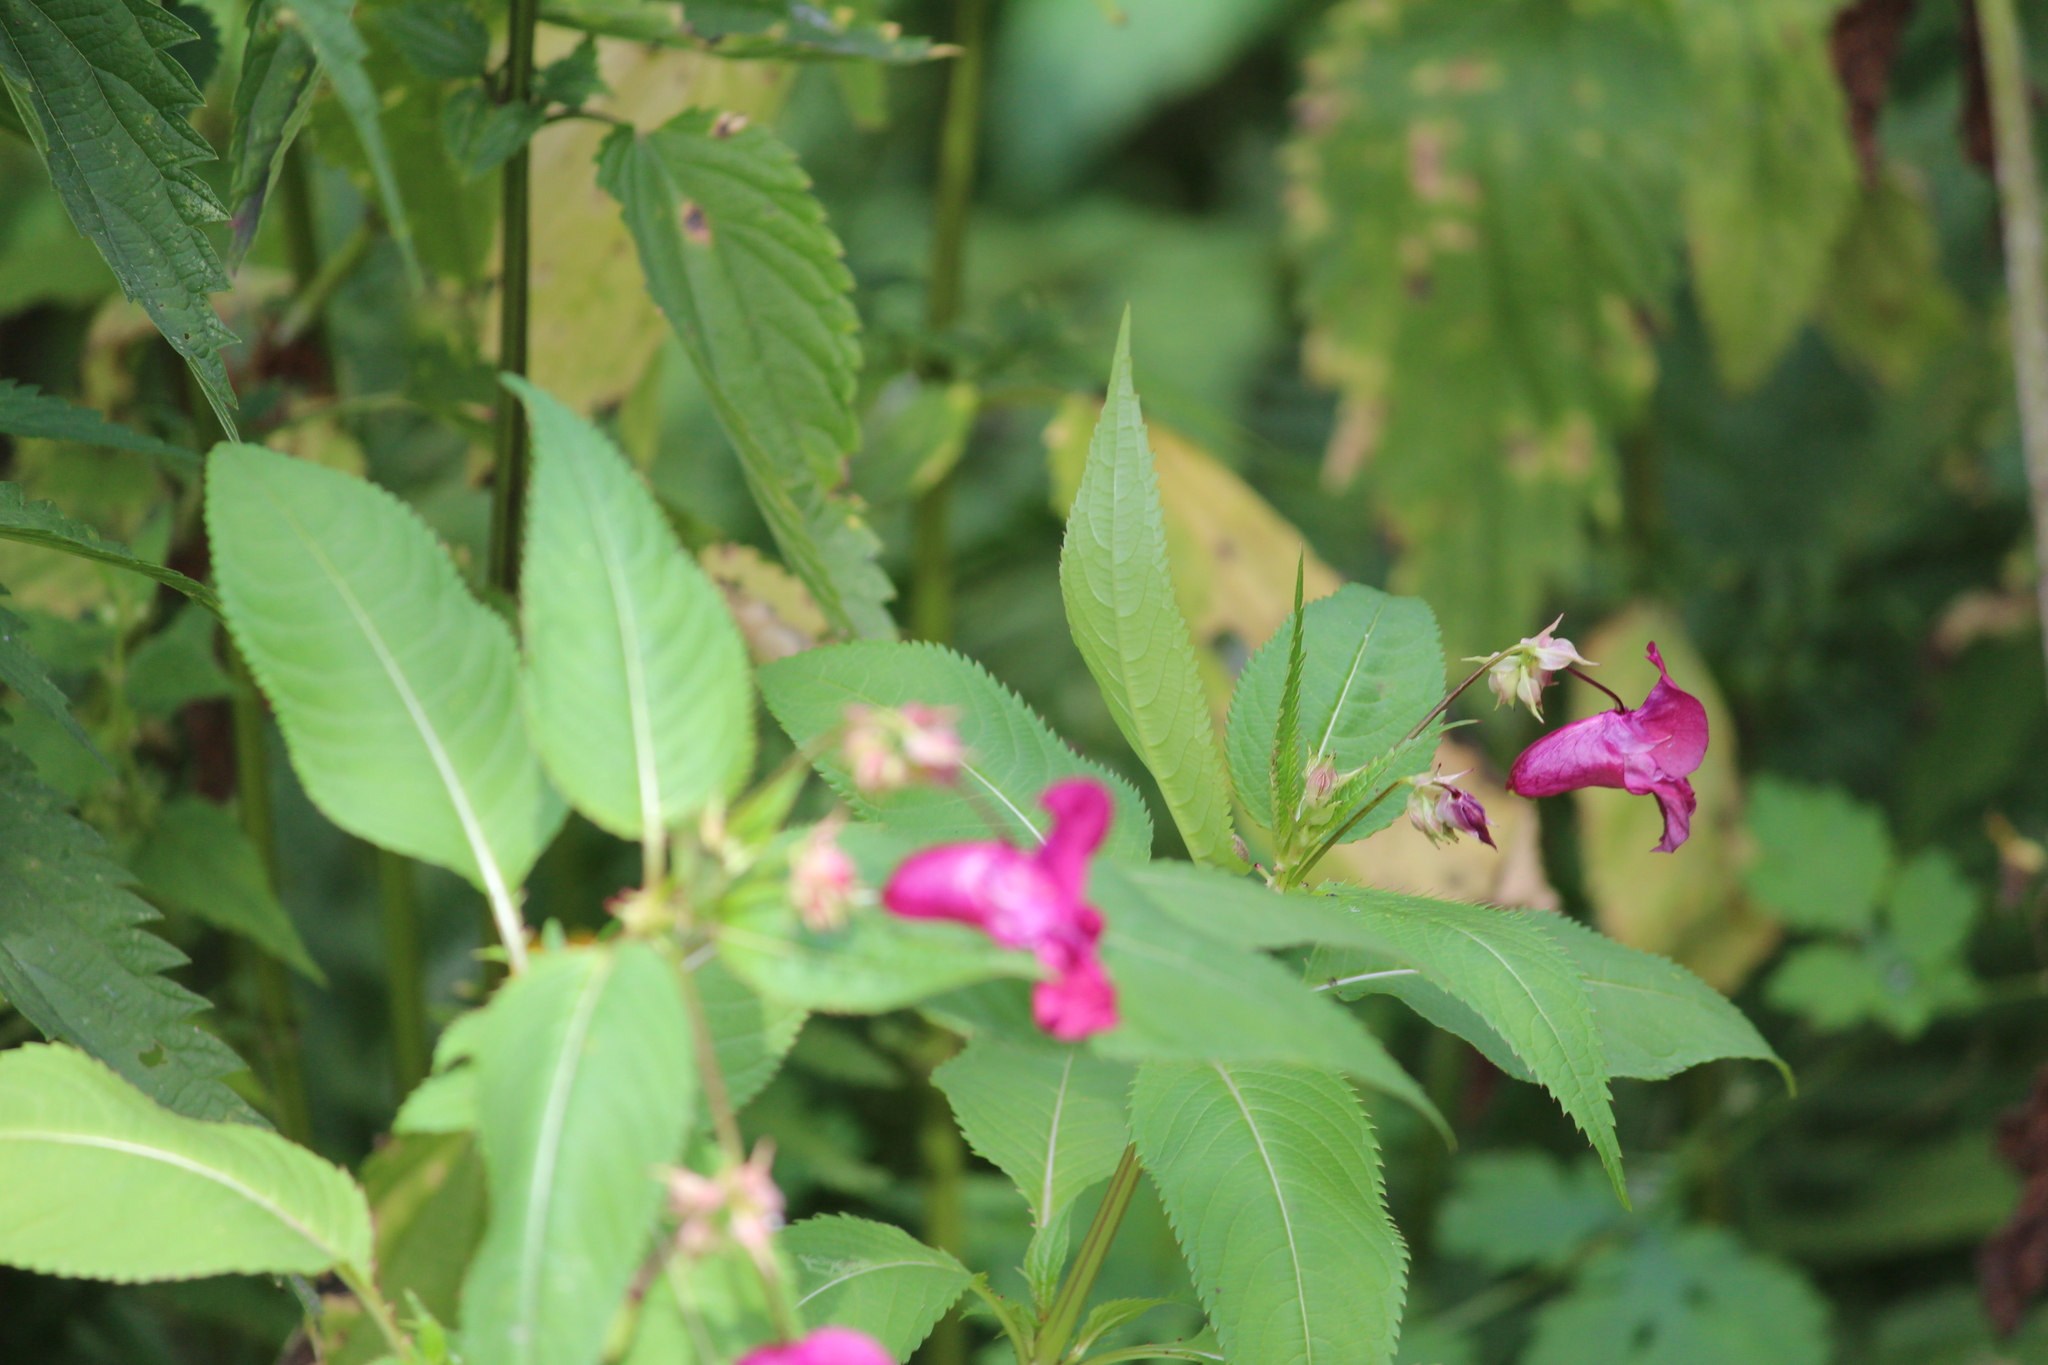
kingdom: Plantae
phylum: Tracheophyta
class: Magnoliopsida
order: Ericales
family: Balsaminaceae
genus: Impatiens
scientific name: Impatiens glandulifera
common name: Himalayan balsam
